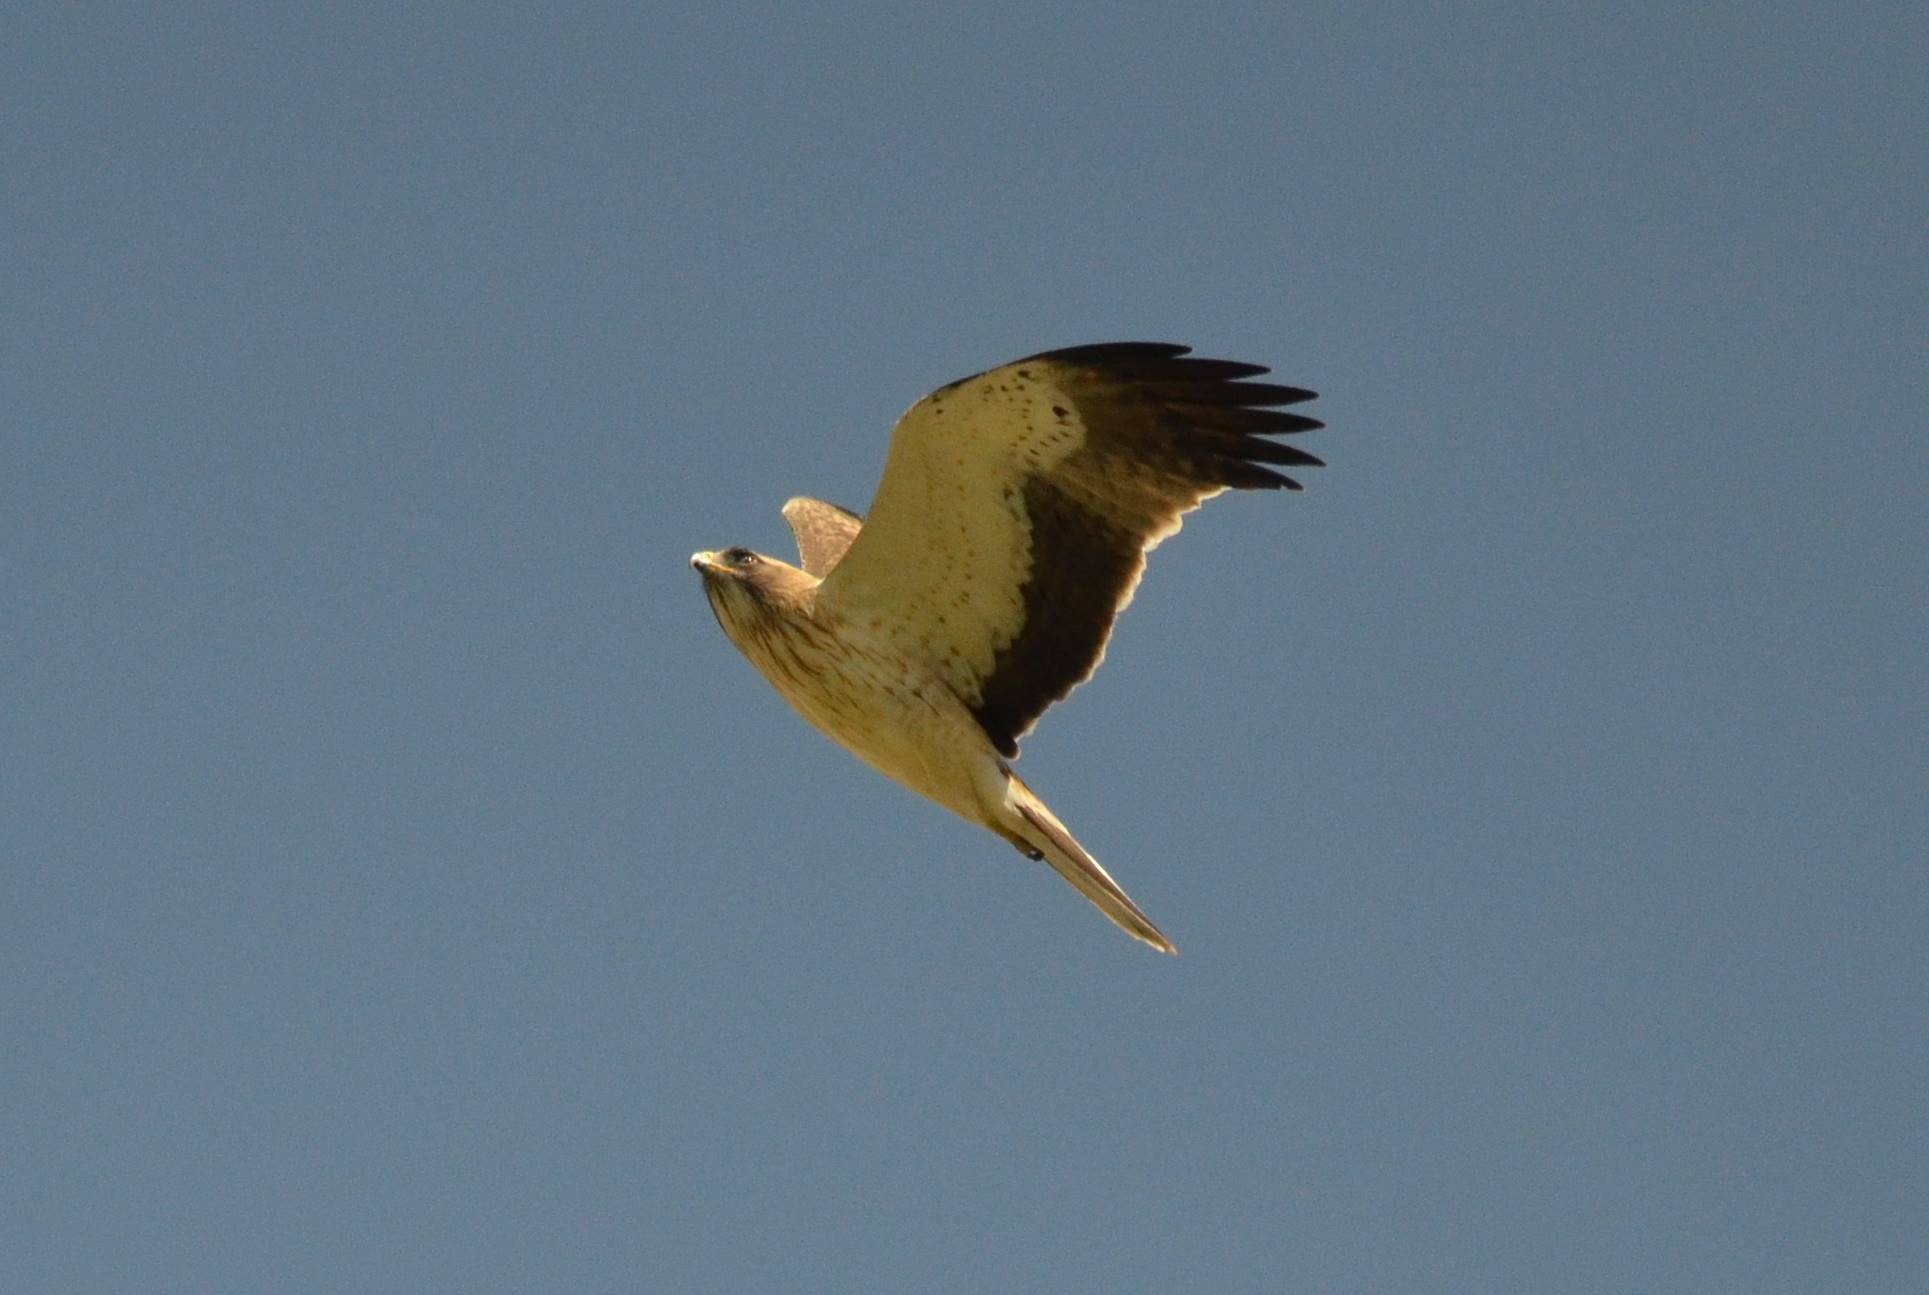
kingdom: Animalia
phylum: Chordata
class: Aves
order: Accipitriformes
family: Accipitridae
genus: Hieraaetus
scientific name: Hieraaetus pennatus
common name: Booted eagle
